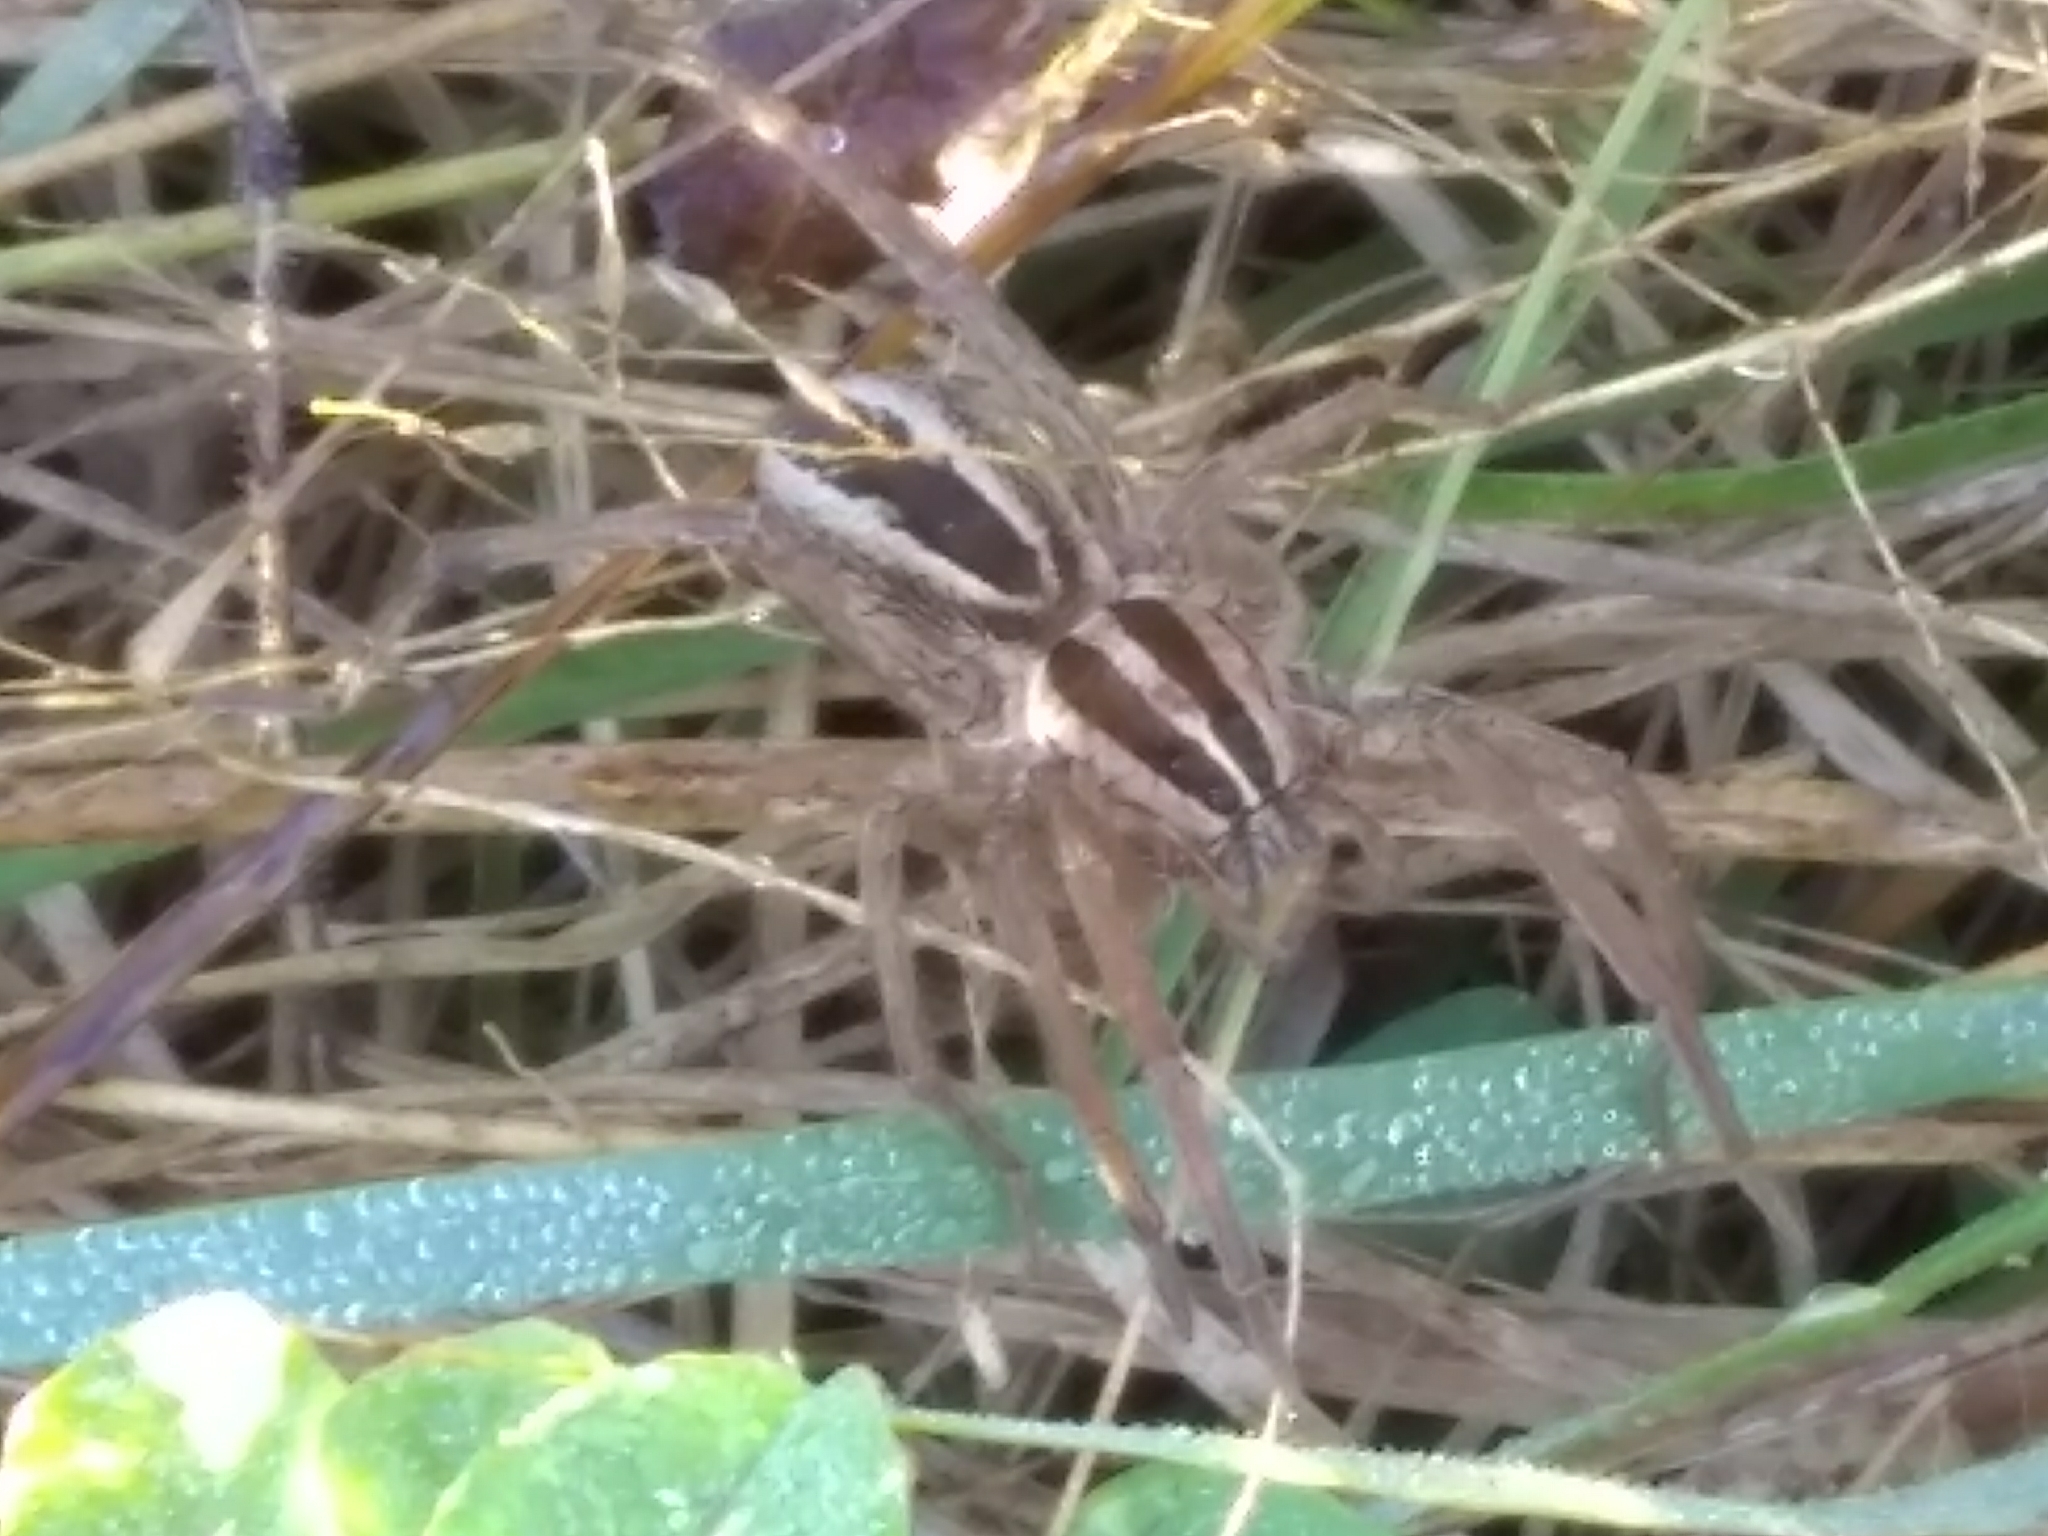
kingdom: Animalia
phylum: Arthropoda
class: Arachnida
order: Araneae
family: Lycosidae
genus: Rabidosa
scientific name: Rabidosa rabida
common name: Rabid wolf spider
